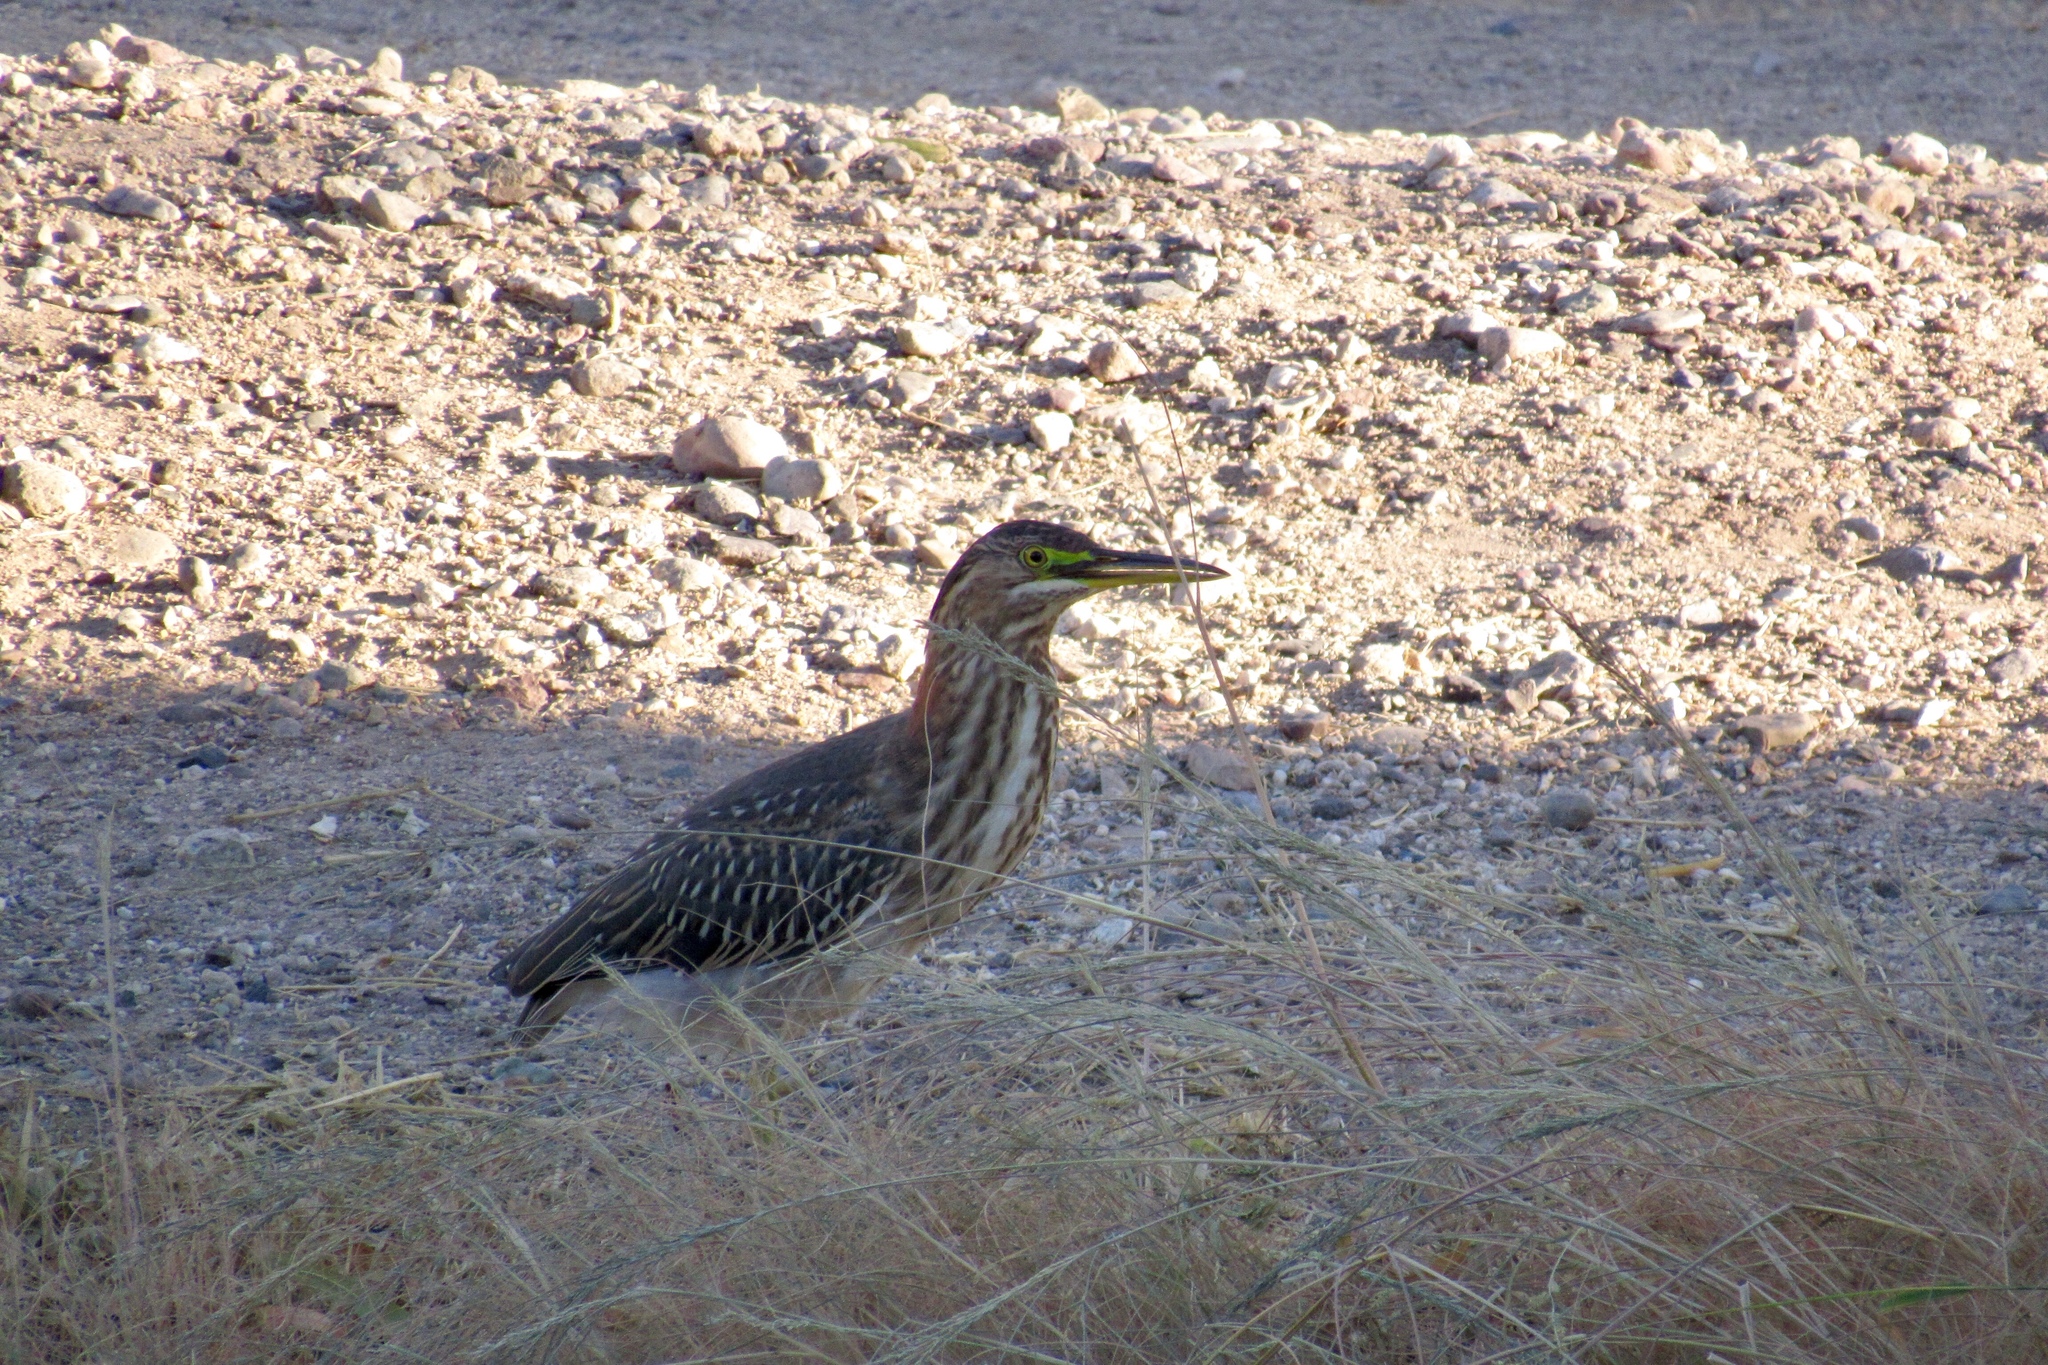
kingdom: Animalia
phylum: Chordata
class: Aves
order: Pelecaniformes
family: Ardeidae
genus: Butorides
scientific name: Butorides virescens
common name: Green heron
